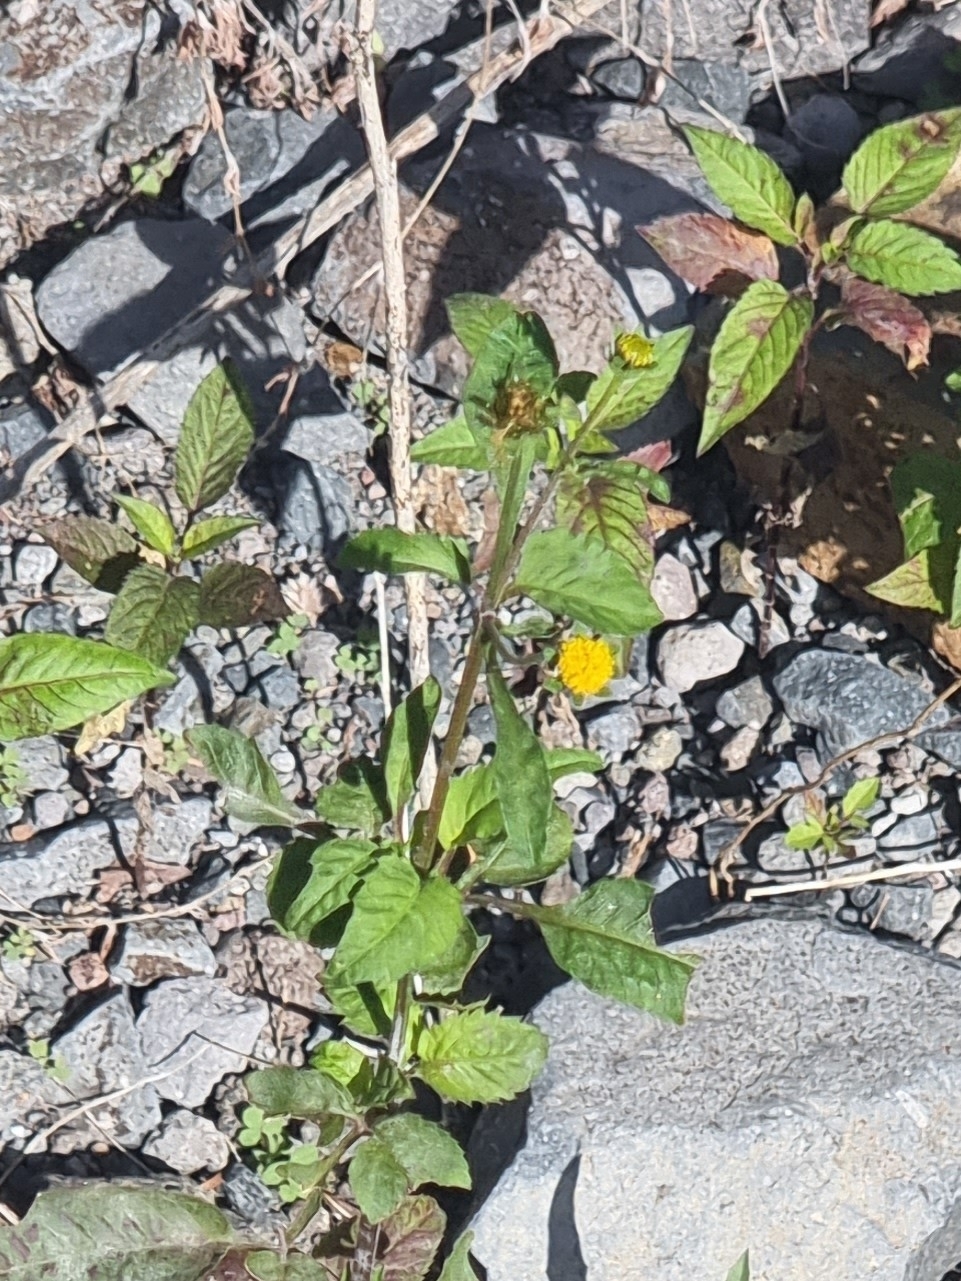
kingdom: Plantae
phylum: Tracheophyta
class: Magnoliopsida
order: Asterales
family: Asteraceae
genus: Bidens
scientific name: Bidens pilosa
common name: Black-jack
